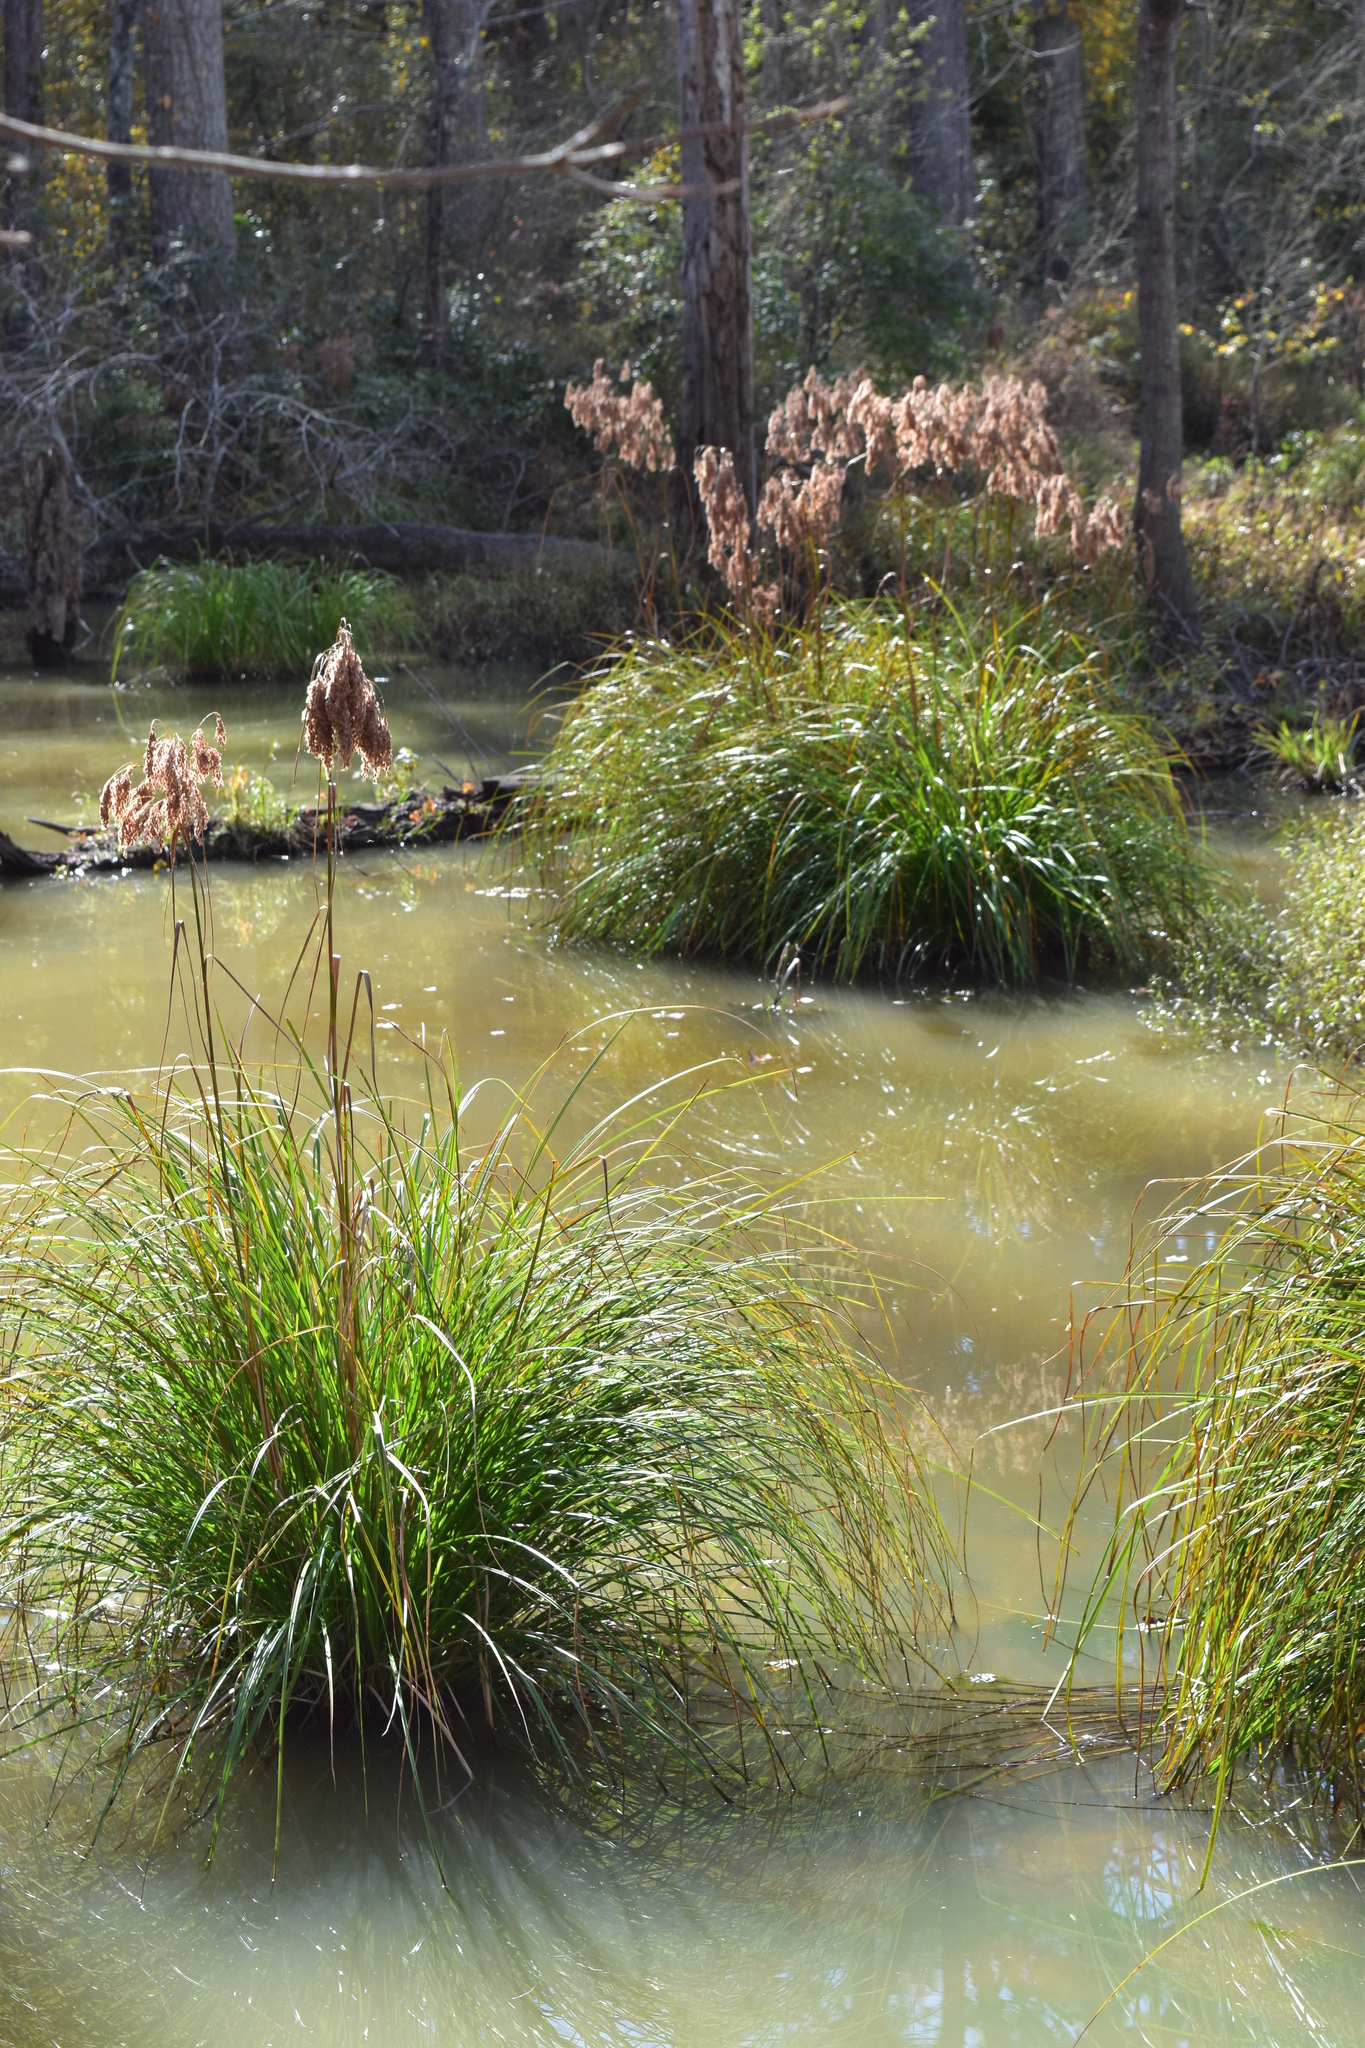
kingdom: Plantae
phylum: Tracheophyta
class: Liliopsida
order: Poales
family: Cyperaceae
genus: Scirpus
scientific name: Scirpus cyperinus
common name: Black-sheathed bulrush
